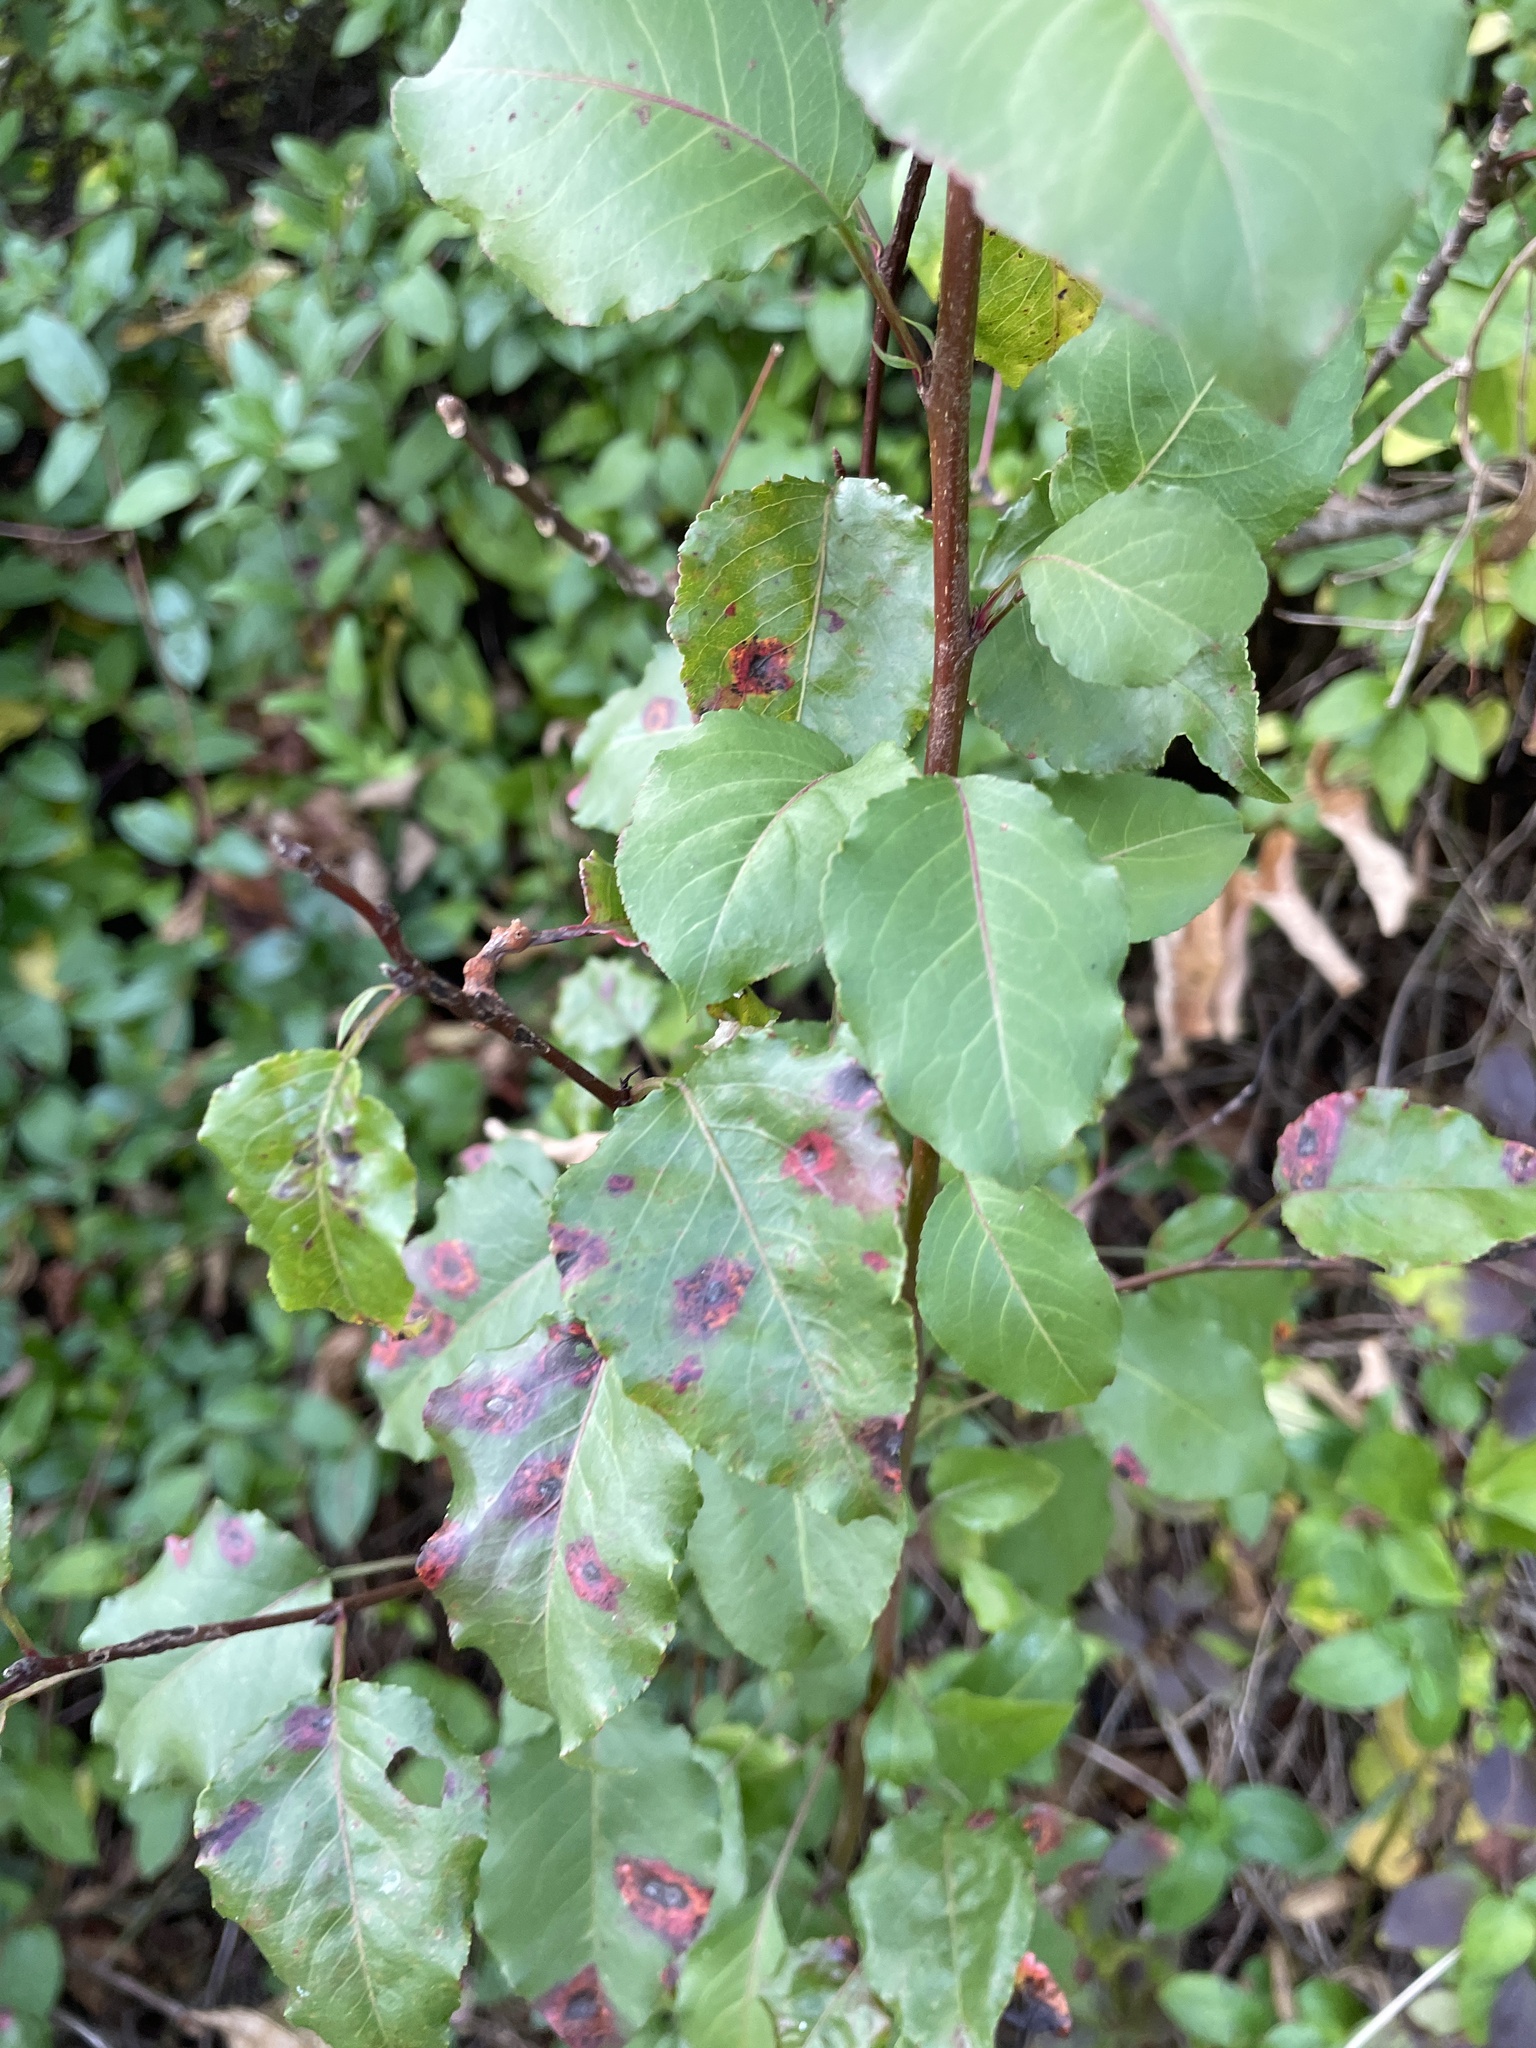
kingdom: Plantae
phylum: Tracheophyta
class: Magnoliopsida
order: Rosales
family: Rosaceae
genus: Pyrus
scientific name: Pyrus calleryana
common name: Callery pear
